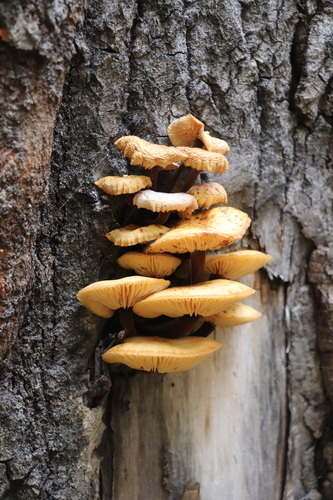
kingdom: Fungi
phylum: Basidiomycota
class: Agaricomycetes
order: Agaricales
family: Physalacriaceae
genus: Flammulina
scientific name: Flammulina velutipes
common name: Velvet shank
